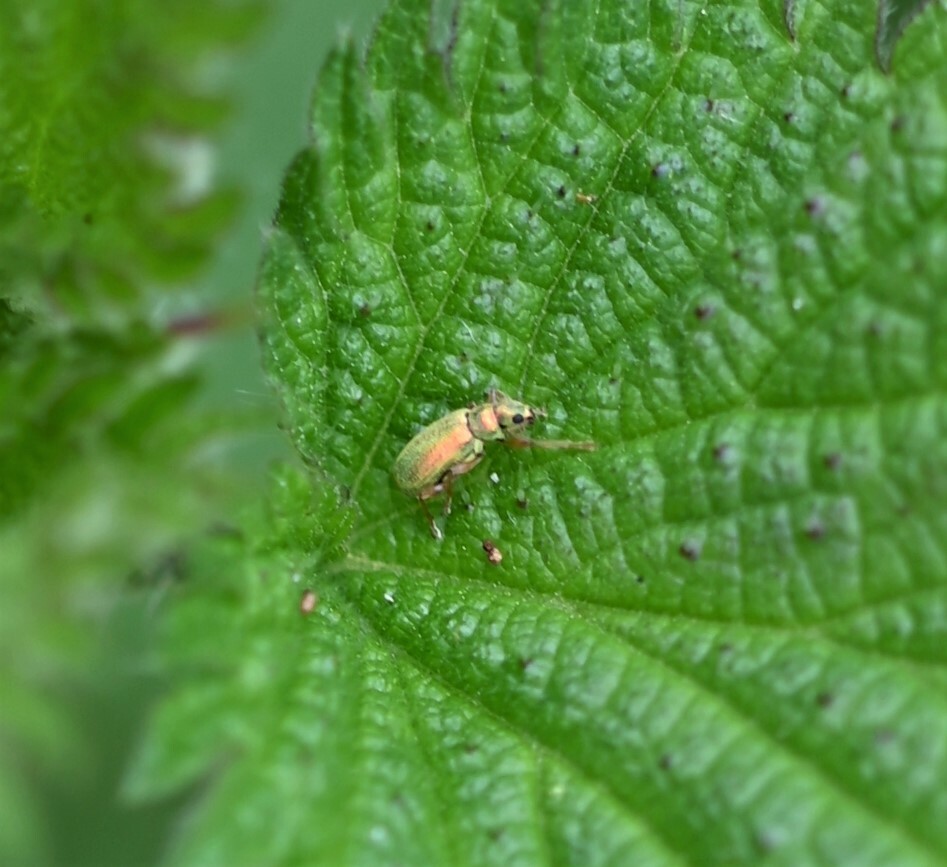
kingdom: Animalia
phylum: Arthropoda
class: Insecta
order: Coleoptera
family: Curculionidae
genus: Polydrusus
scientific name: Polydrusus pterygomalis
